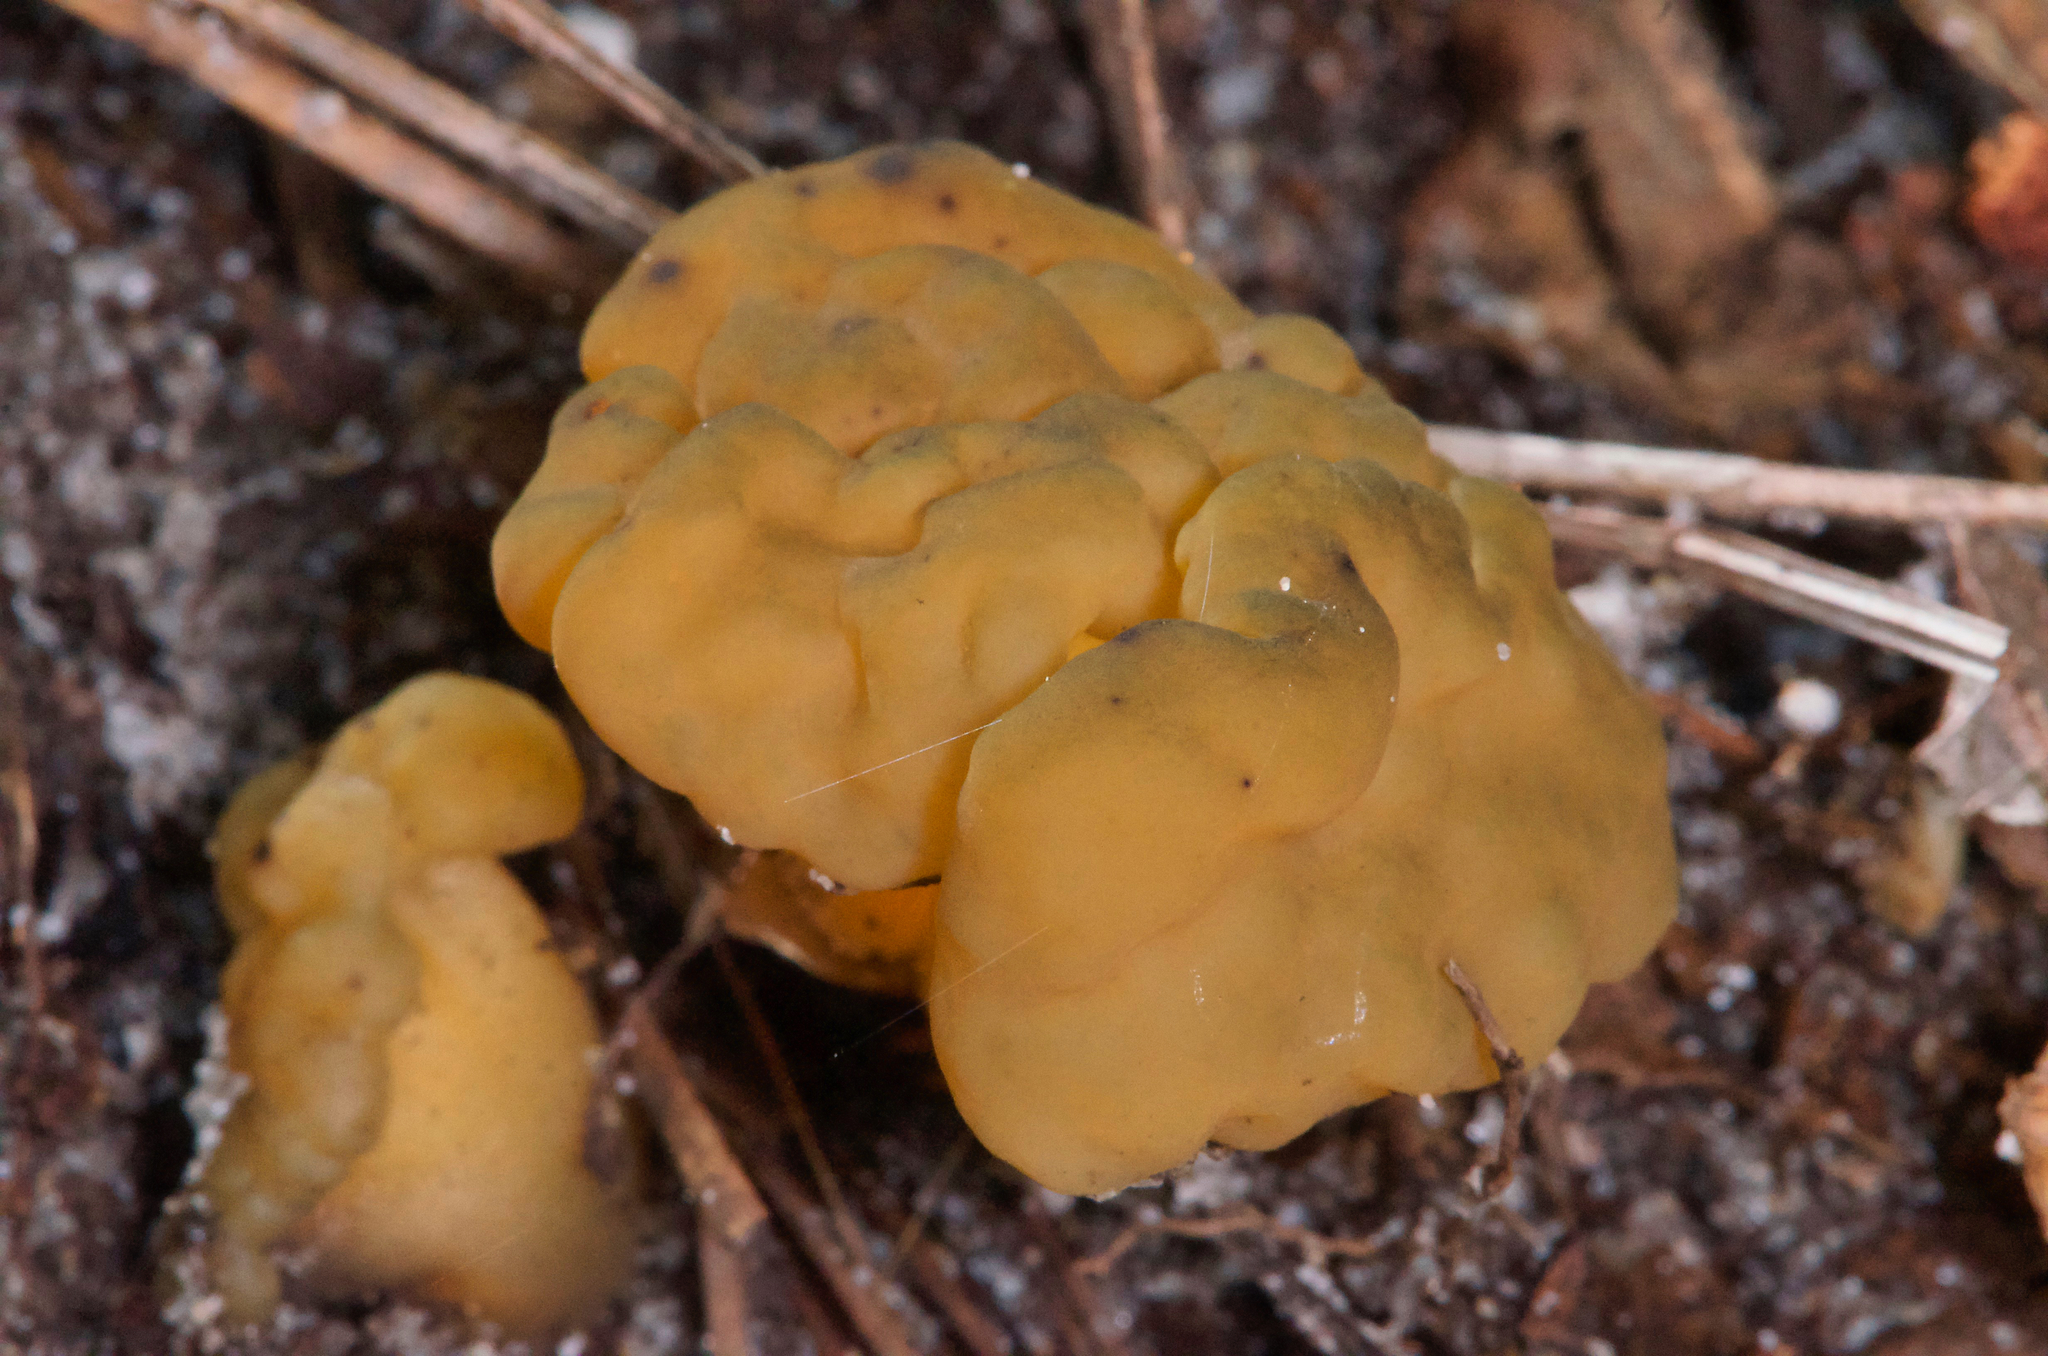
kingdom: Fungi
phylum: Ascomycota
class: Leotiomycetes
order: Leotiales
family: Leotiaceae
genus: Leotia
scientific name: Leotia lubrica
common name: Jellybaby
